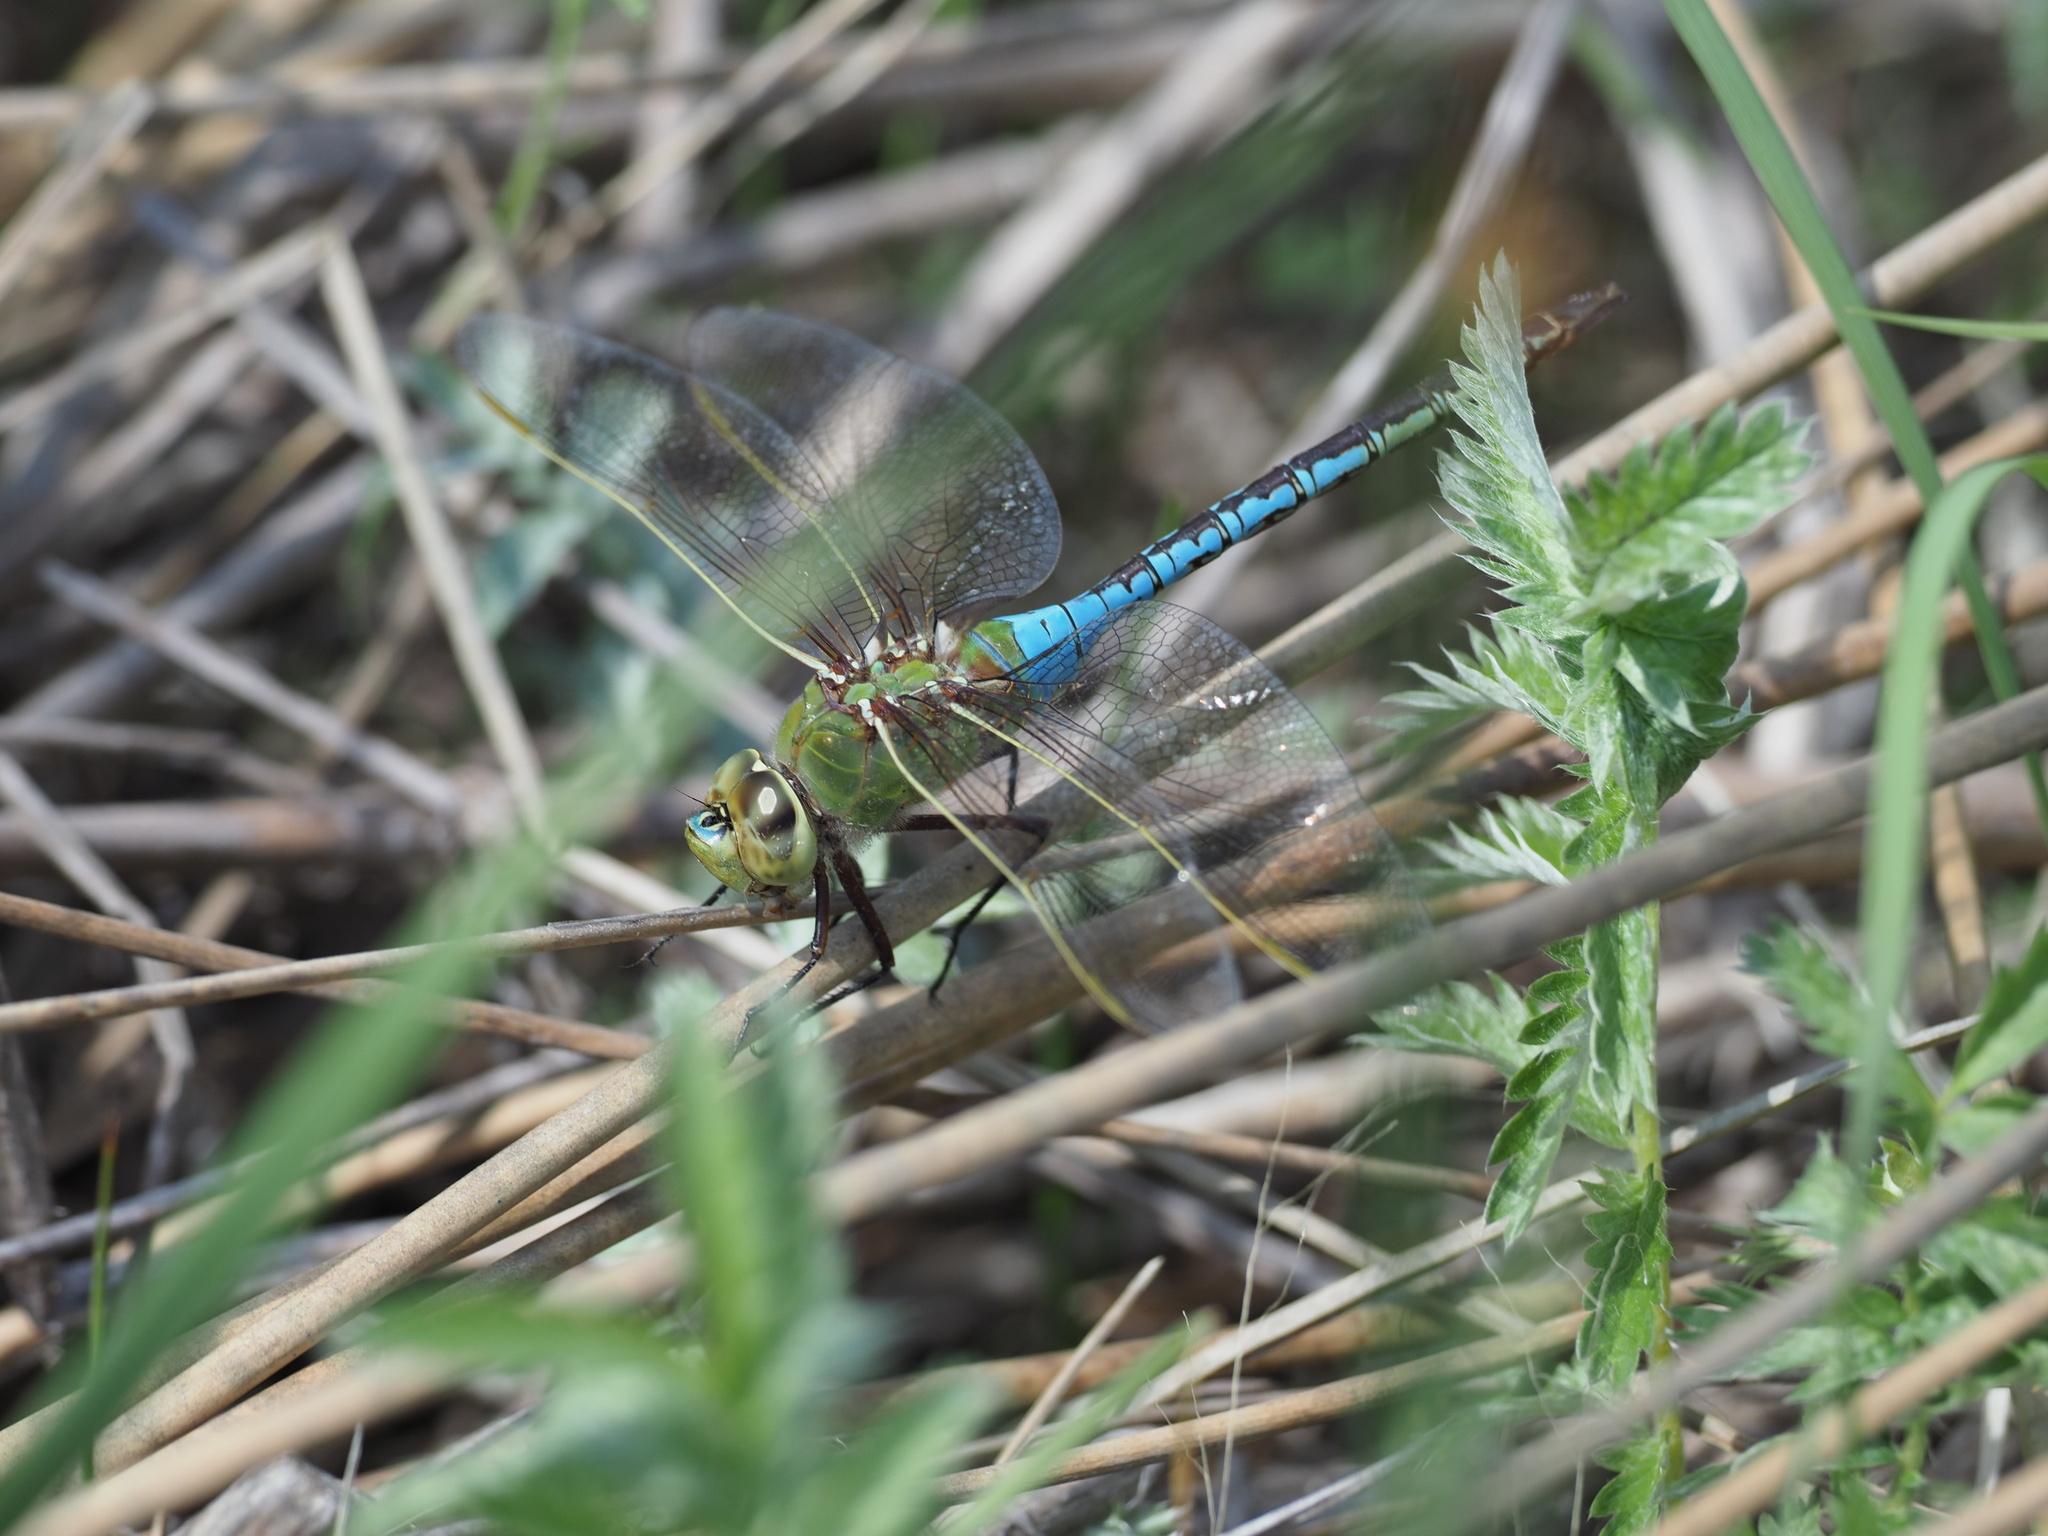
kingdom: Animalia
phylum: Arthropoda
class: Insecta
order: Odonata
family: Aeshnidae
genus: Anax
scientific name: Anax junius
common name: Common green darner
